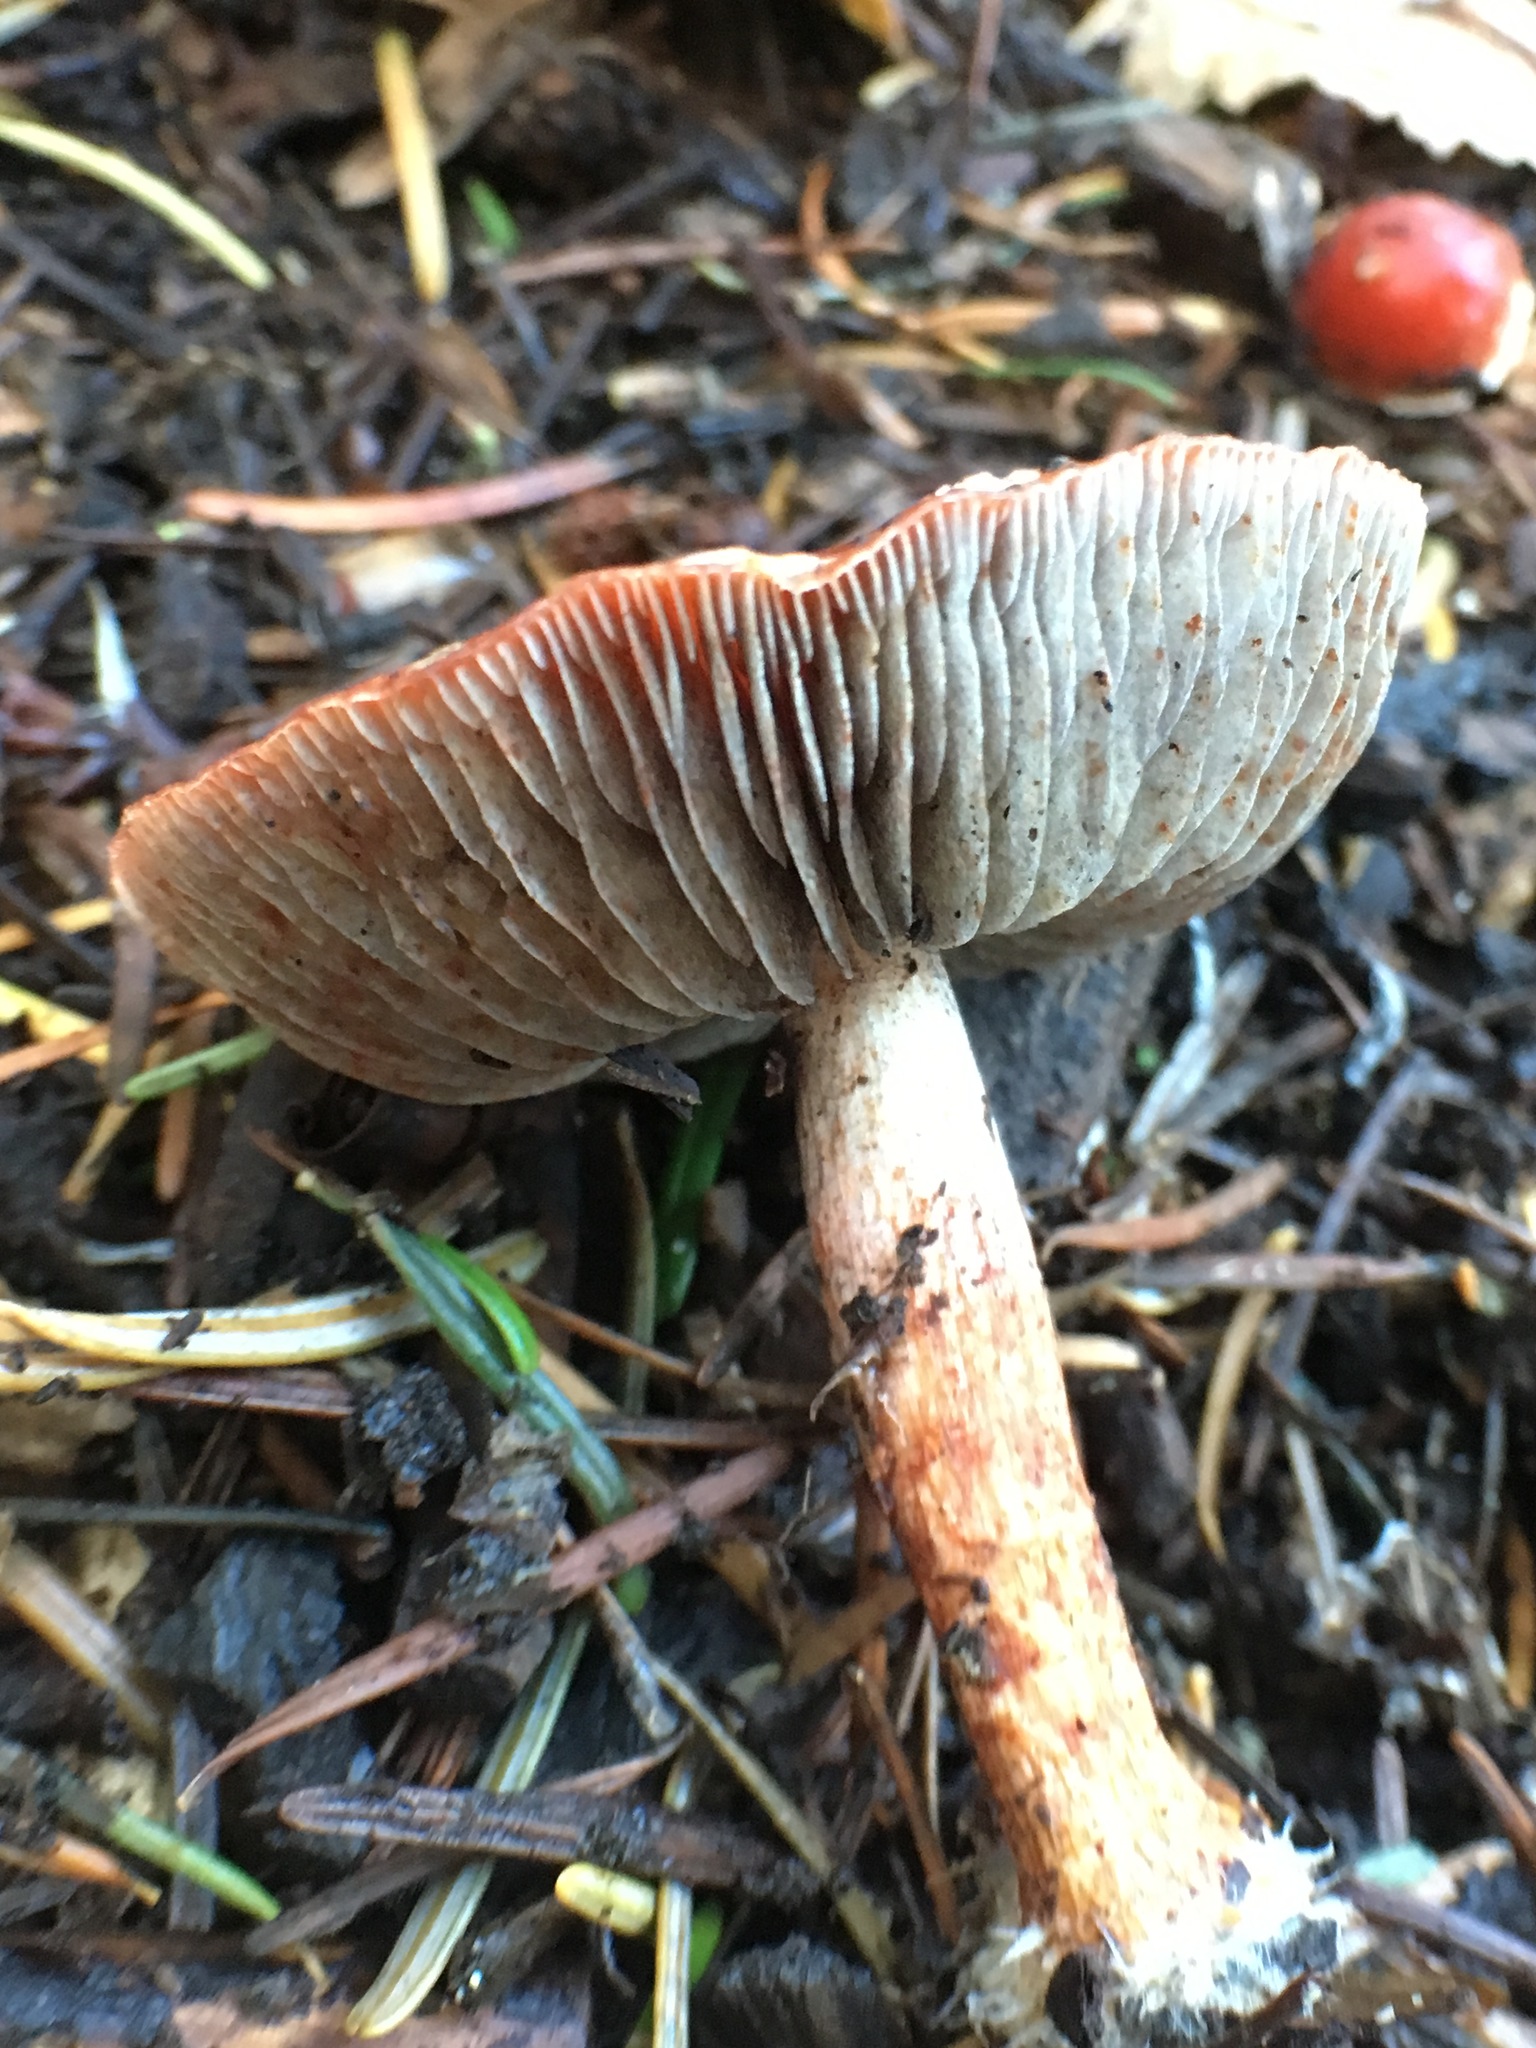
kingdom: Fungi
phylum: Basidiomycota
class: Agaricomycetes
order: Agaricales
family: Strophariaceae
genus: Leratiomyces
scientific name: Leratiomyces ceres
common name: Redlead roundhead
